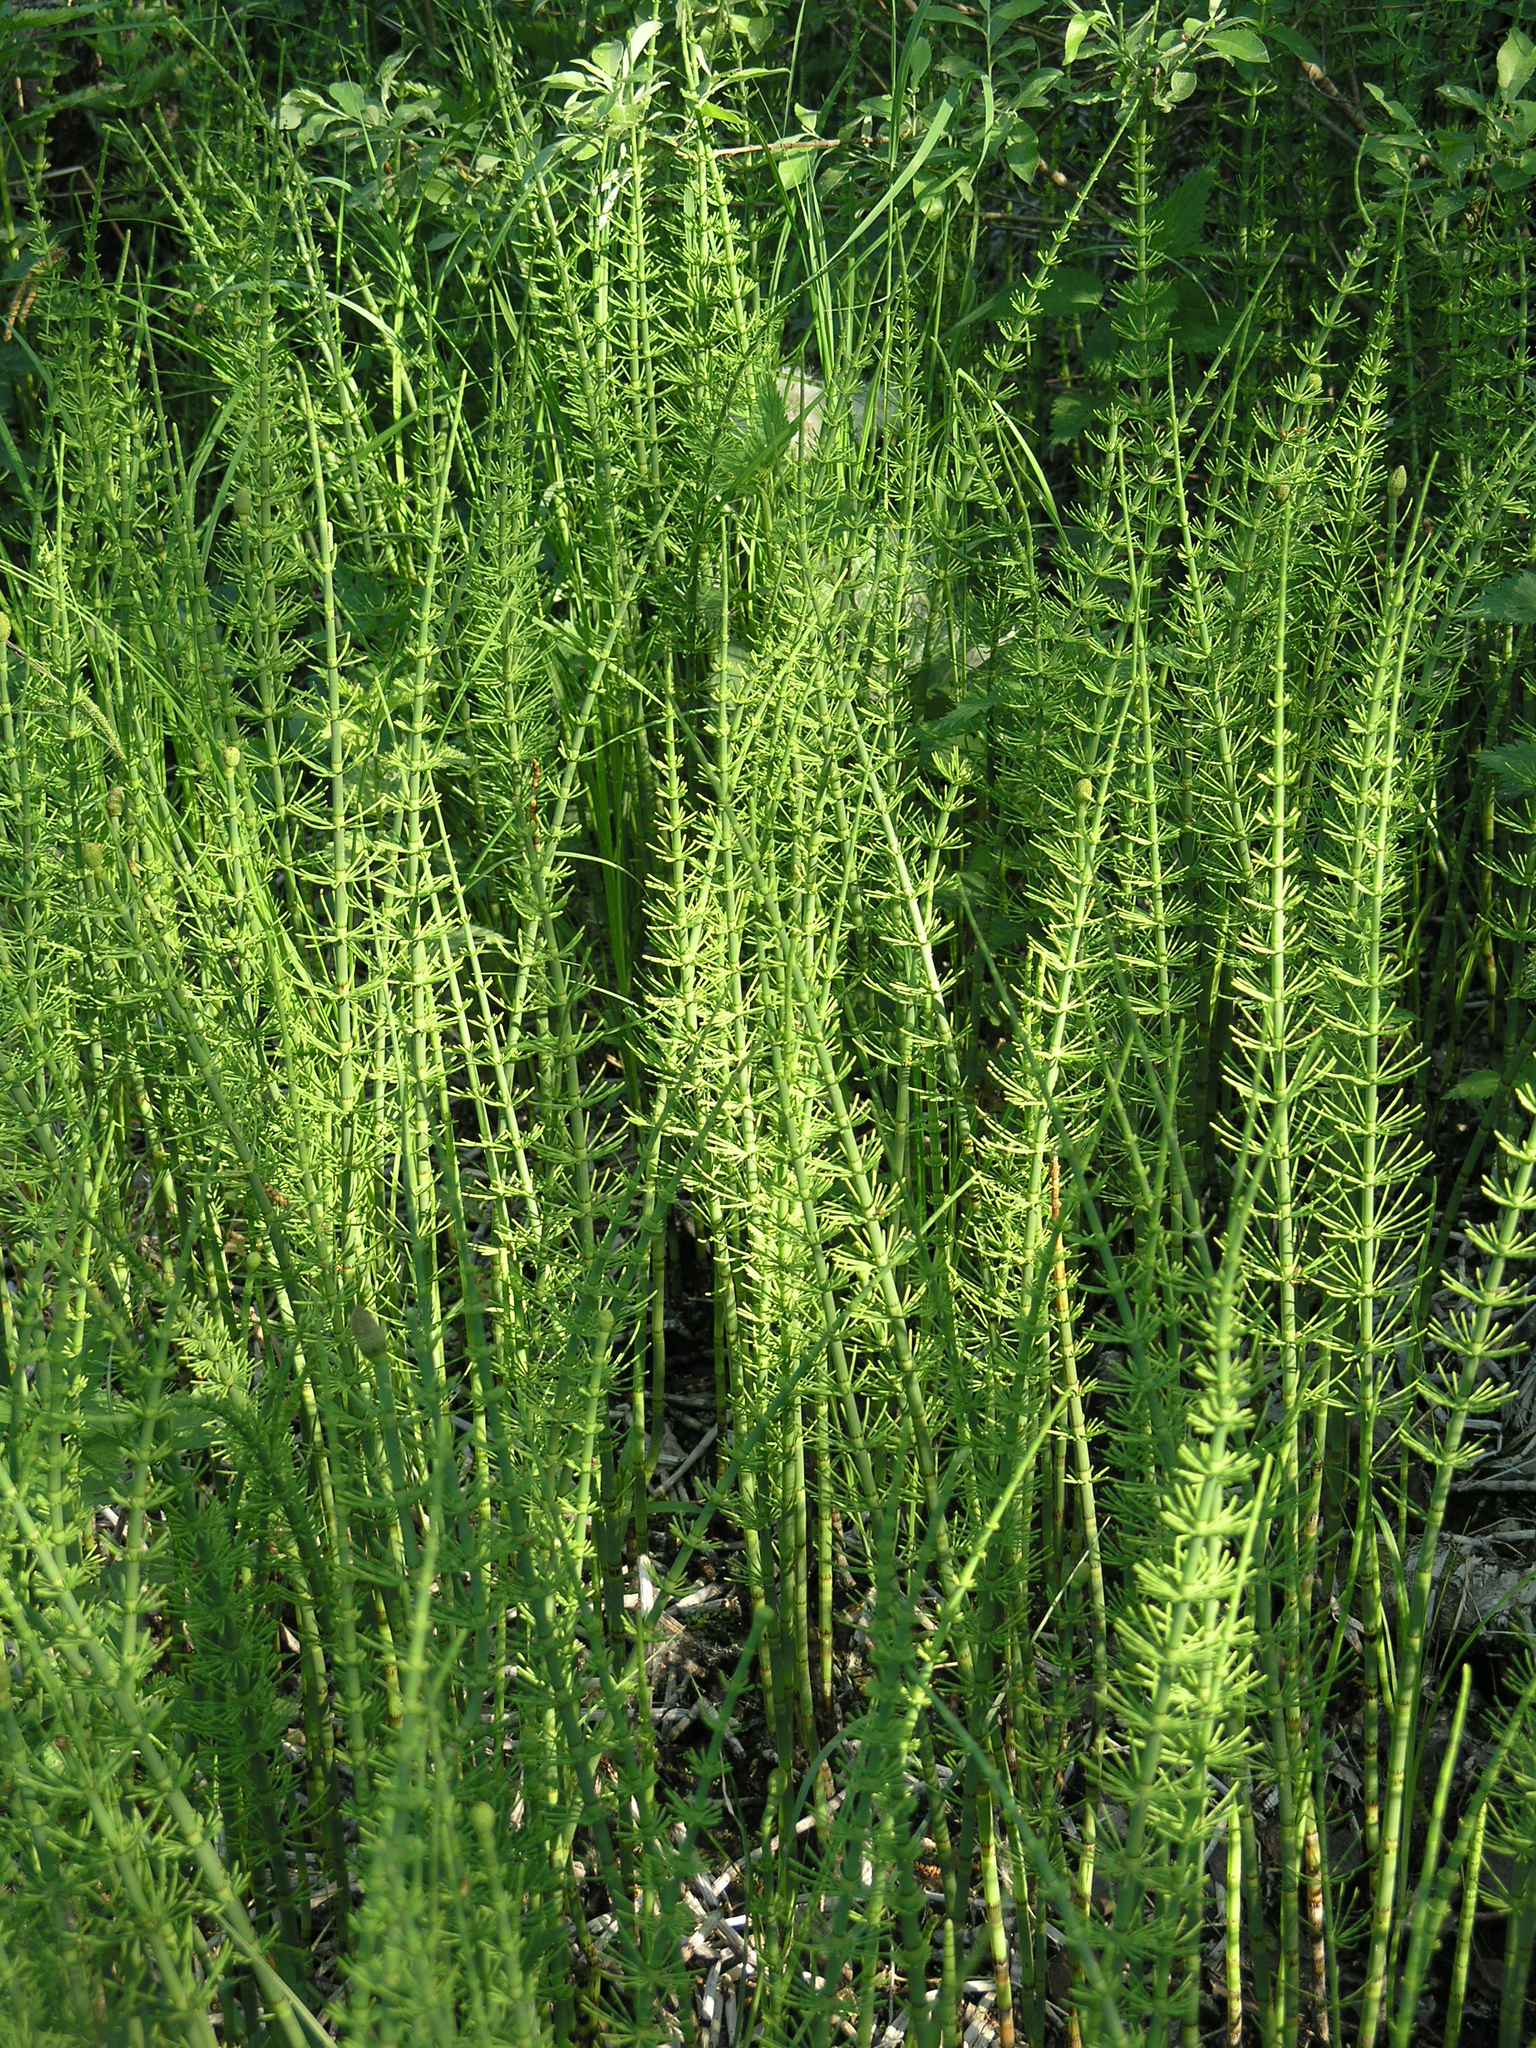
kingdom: Plantae
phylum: Tracheophyta
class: Polypodiopsida
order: Equisetales
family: Equisetaceae
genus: Equisetum
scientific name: Equisetum fluviatile
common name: Water horsetail
